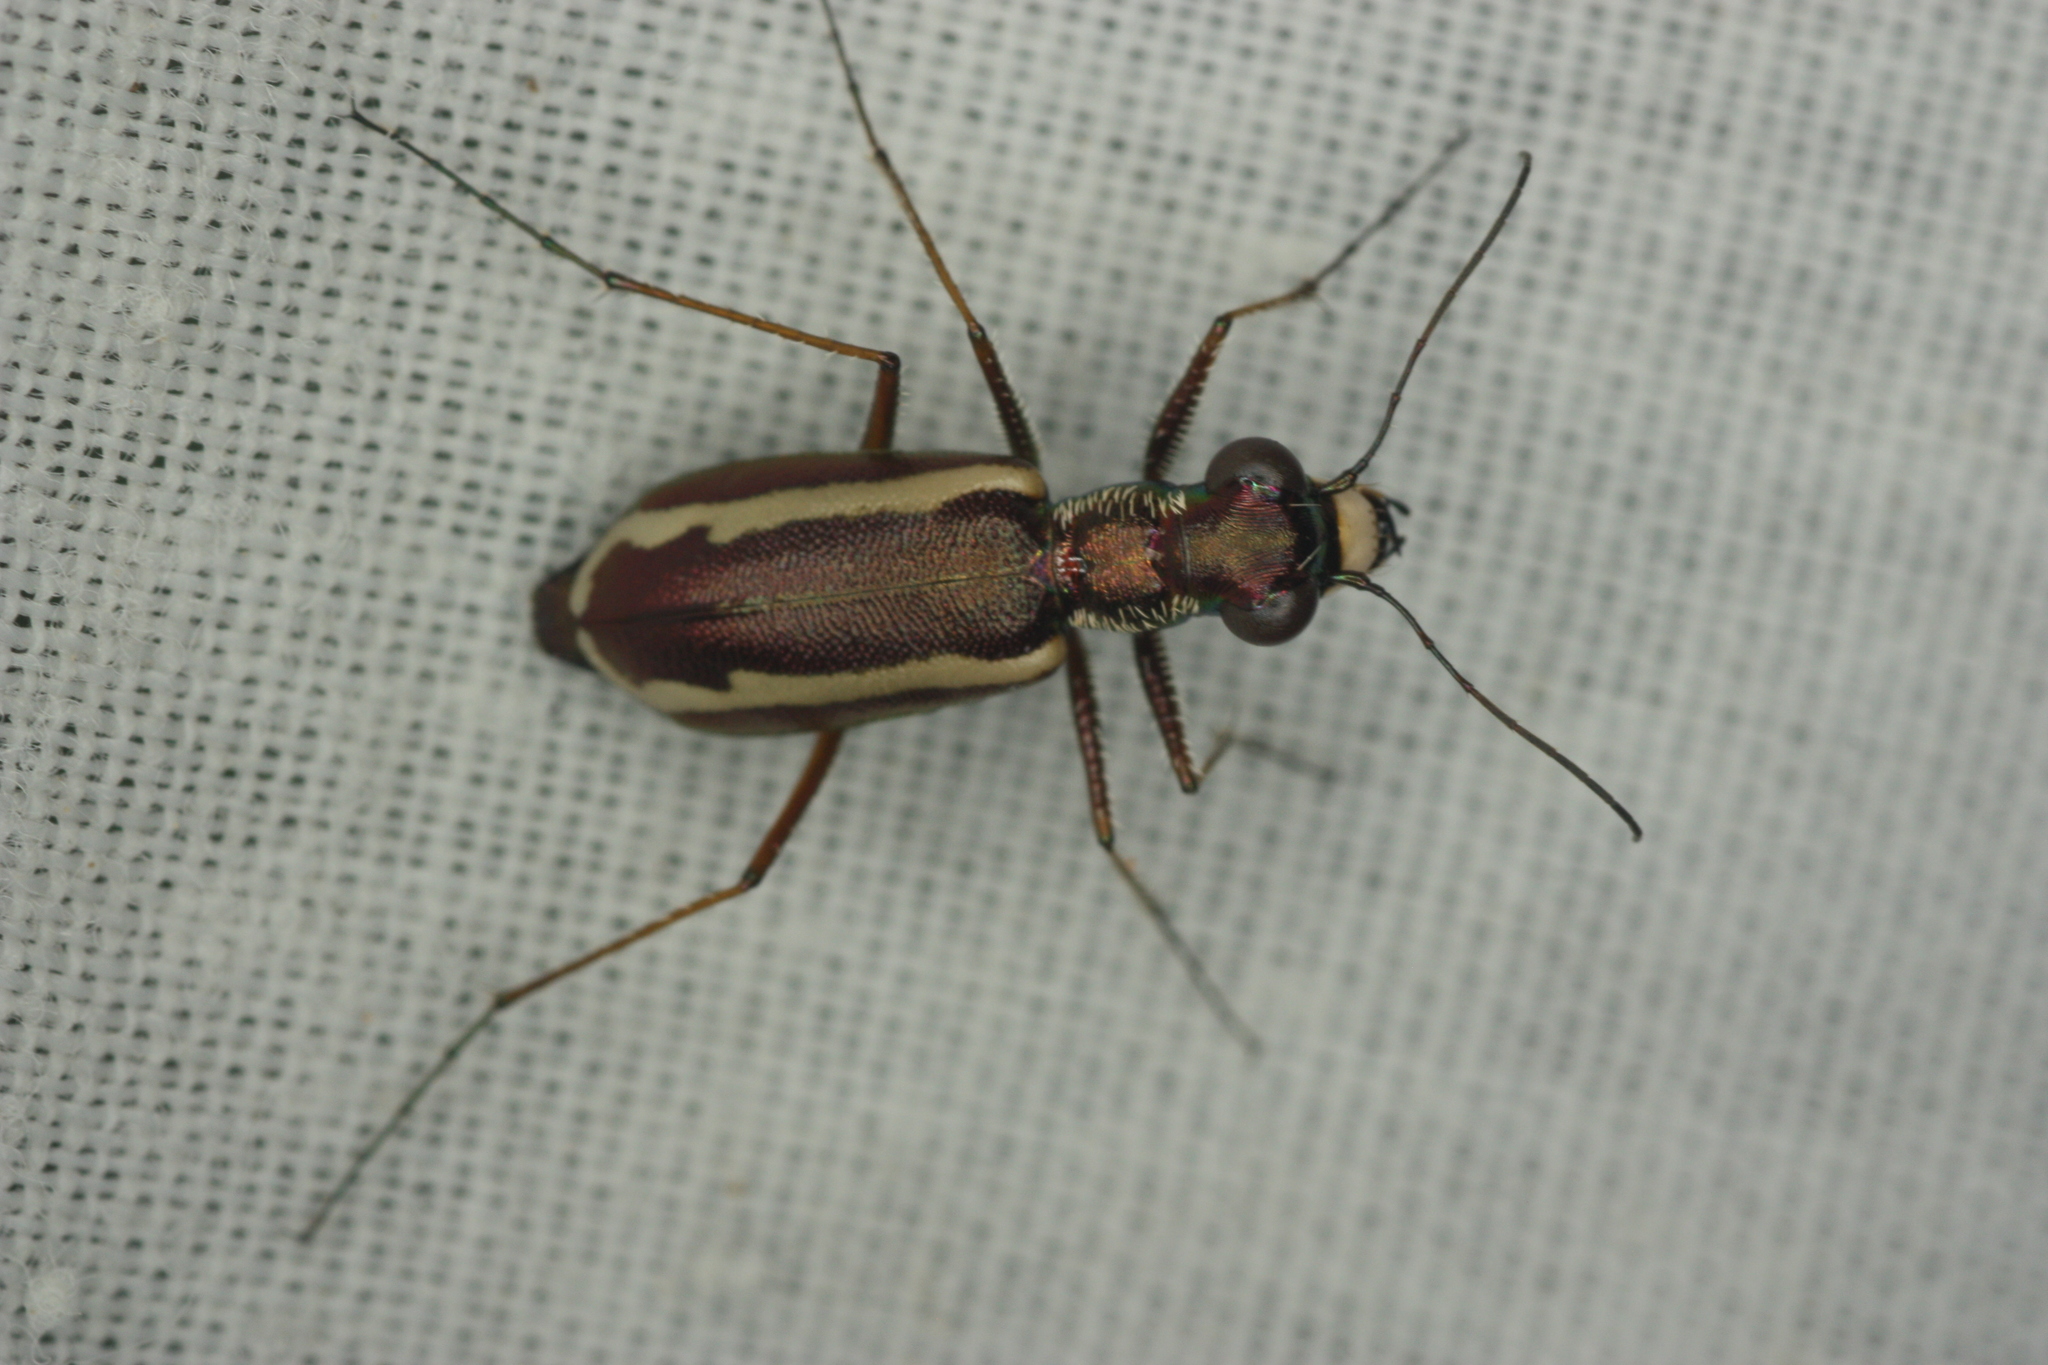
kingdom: Animalia
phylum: Arthropoda
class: Insecta
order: Coleoptera
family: Carabidae
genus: Cylindera
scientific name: Cylindera lemniscata
